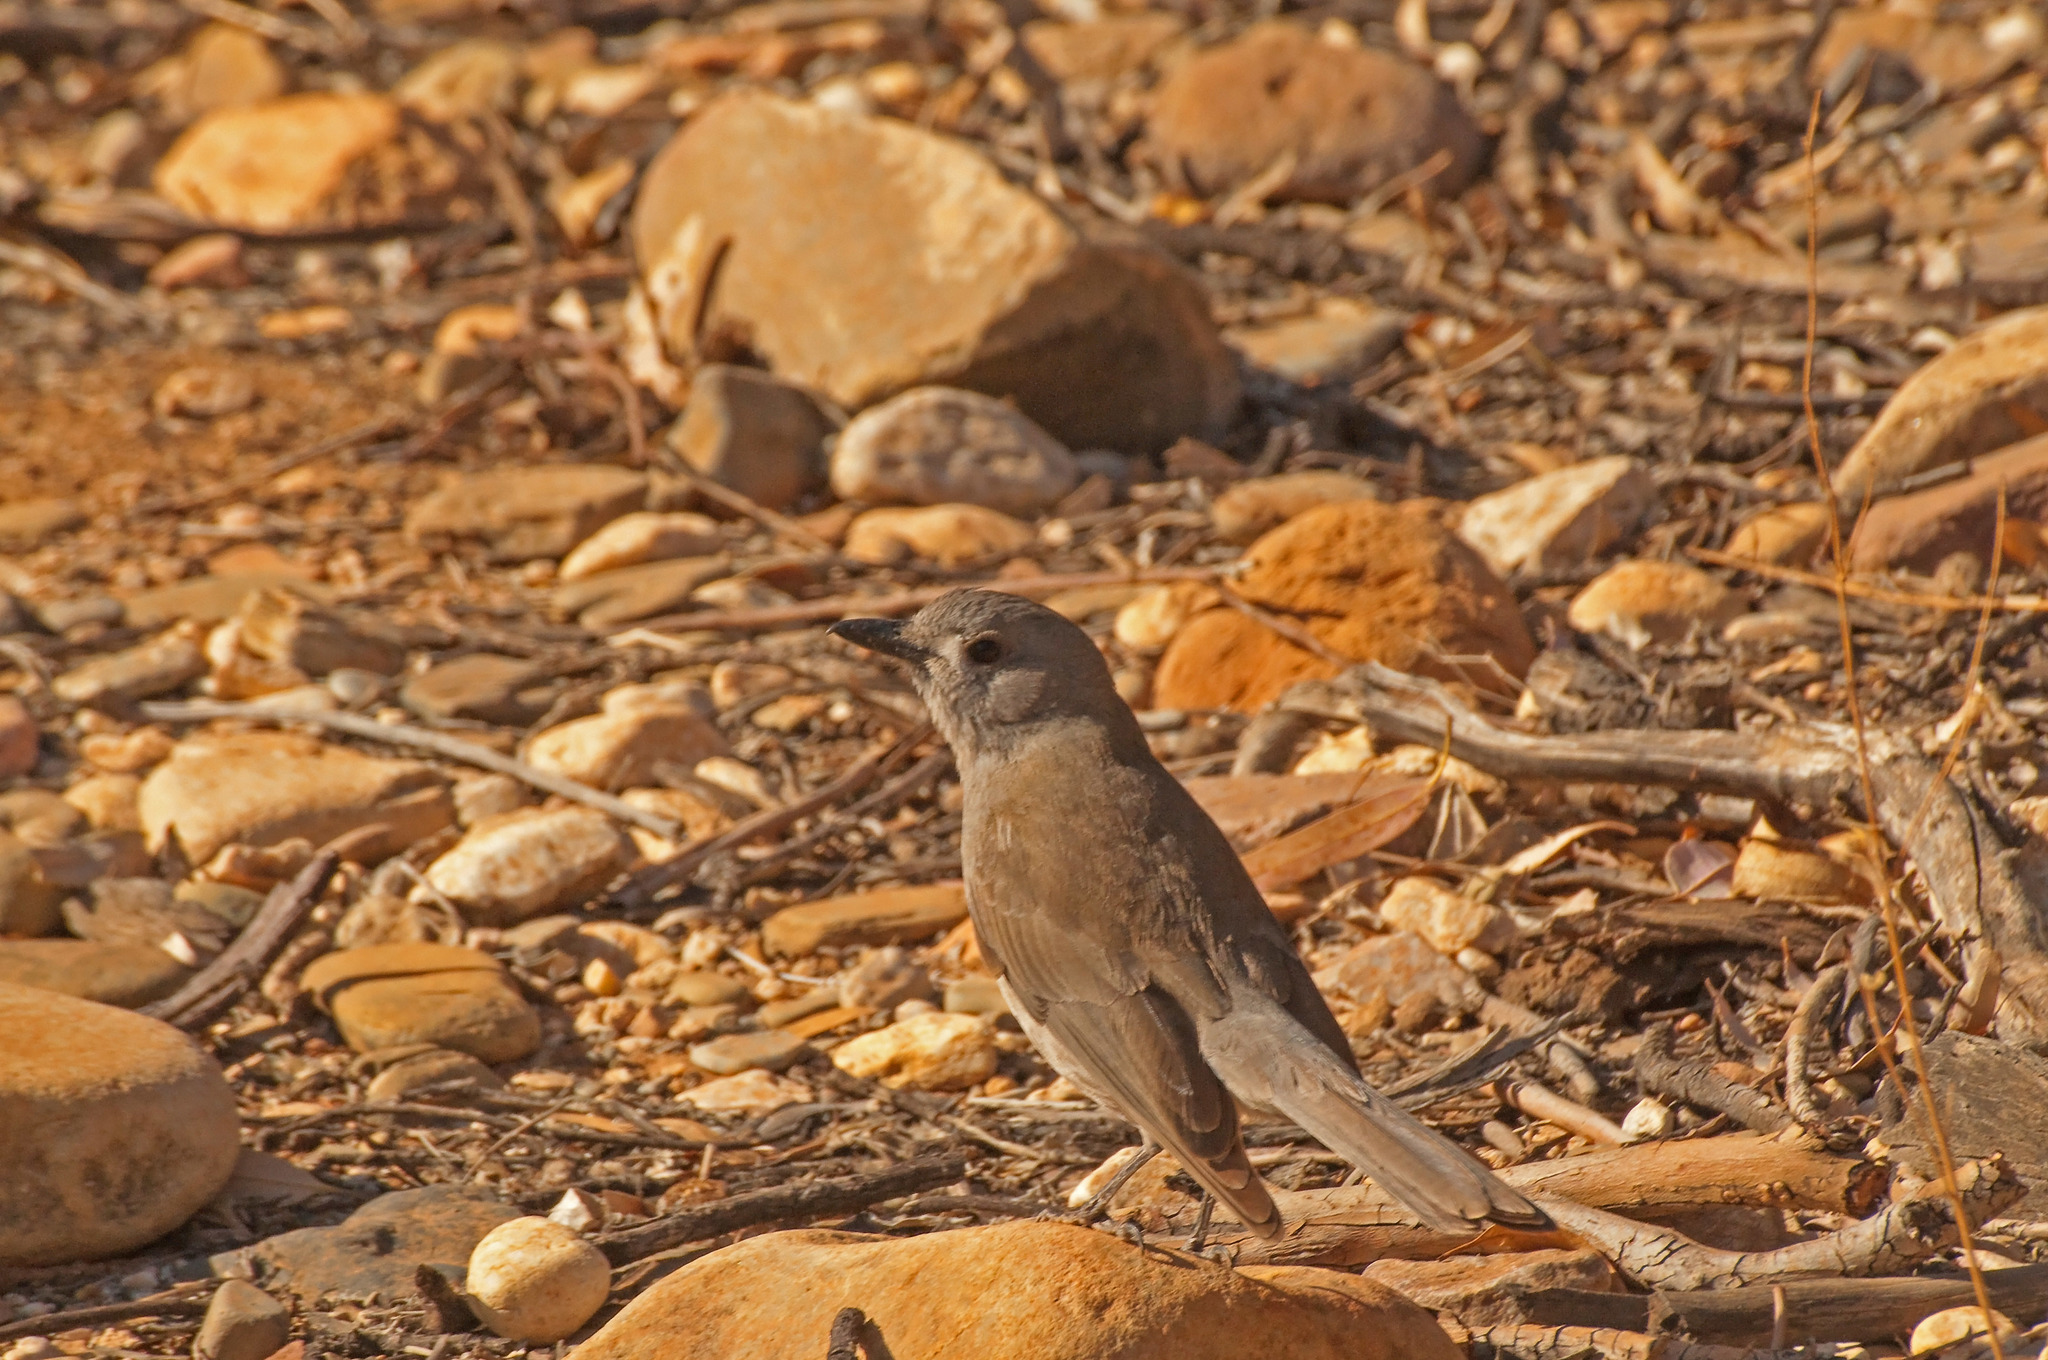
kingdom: Animalia
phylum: Chordata
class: Aves
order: Passeriformes
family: Pachycephalidae
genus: Colluricincla
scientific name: Colluricincla harmonica
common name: Grey shrikethrush
